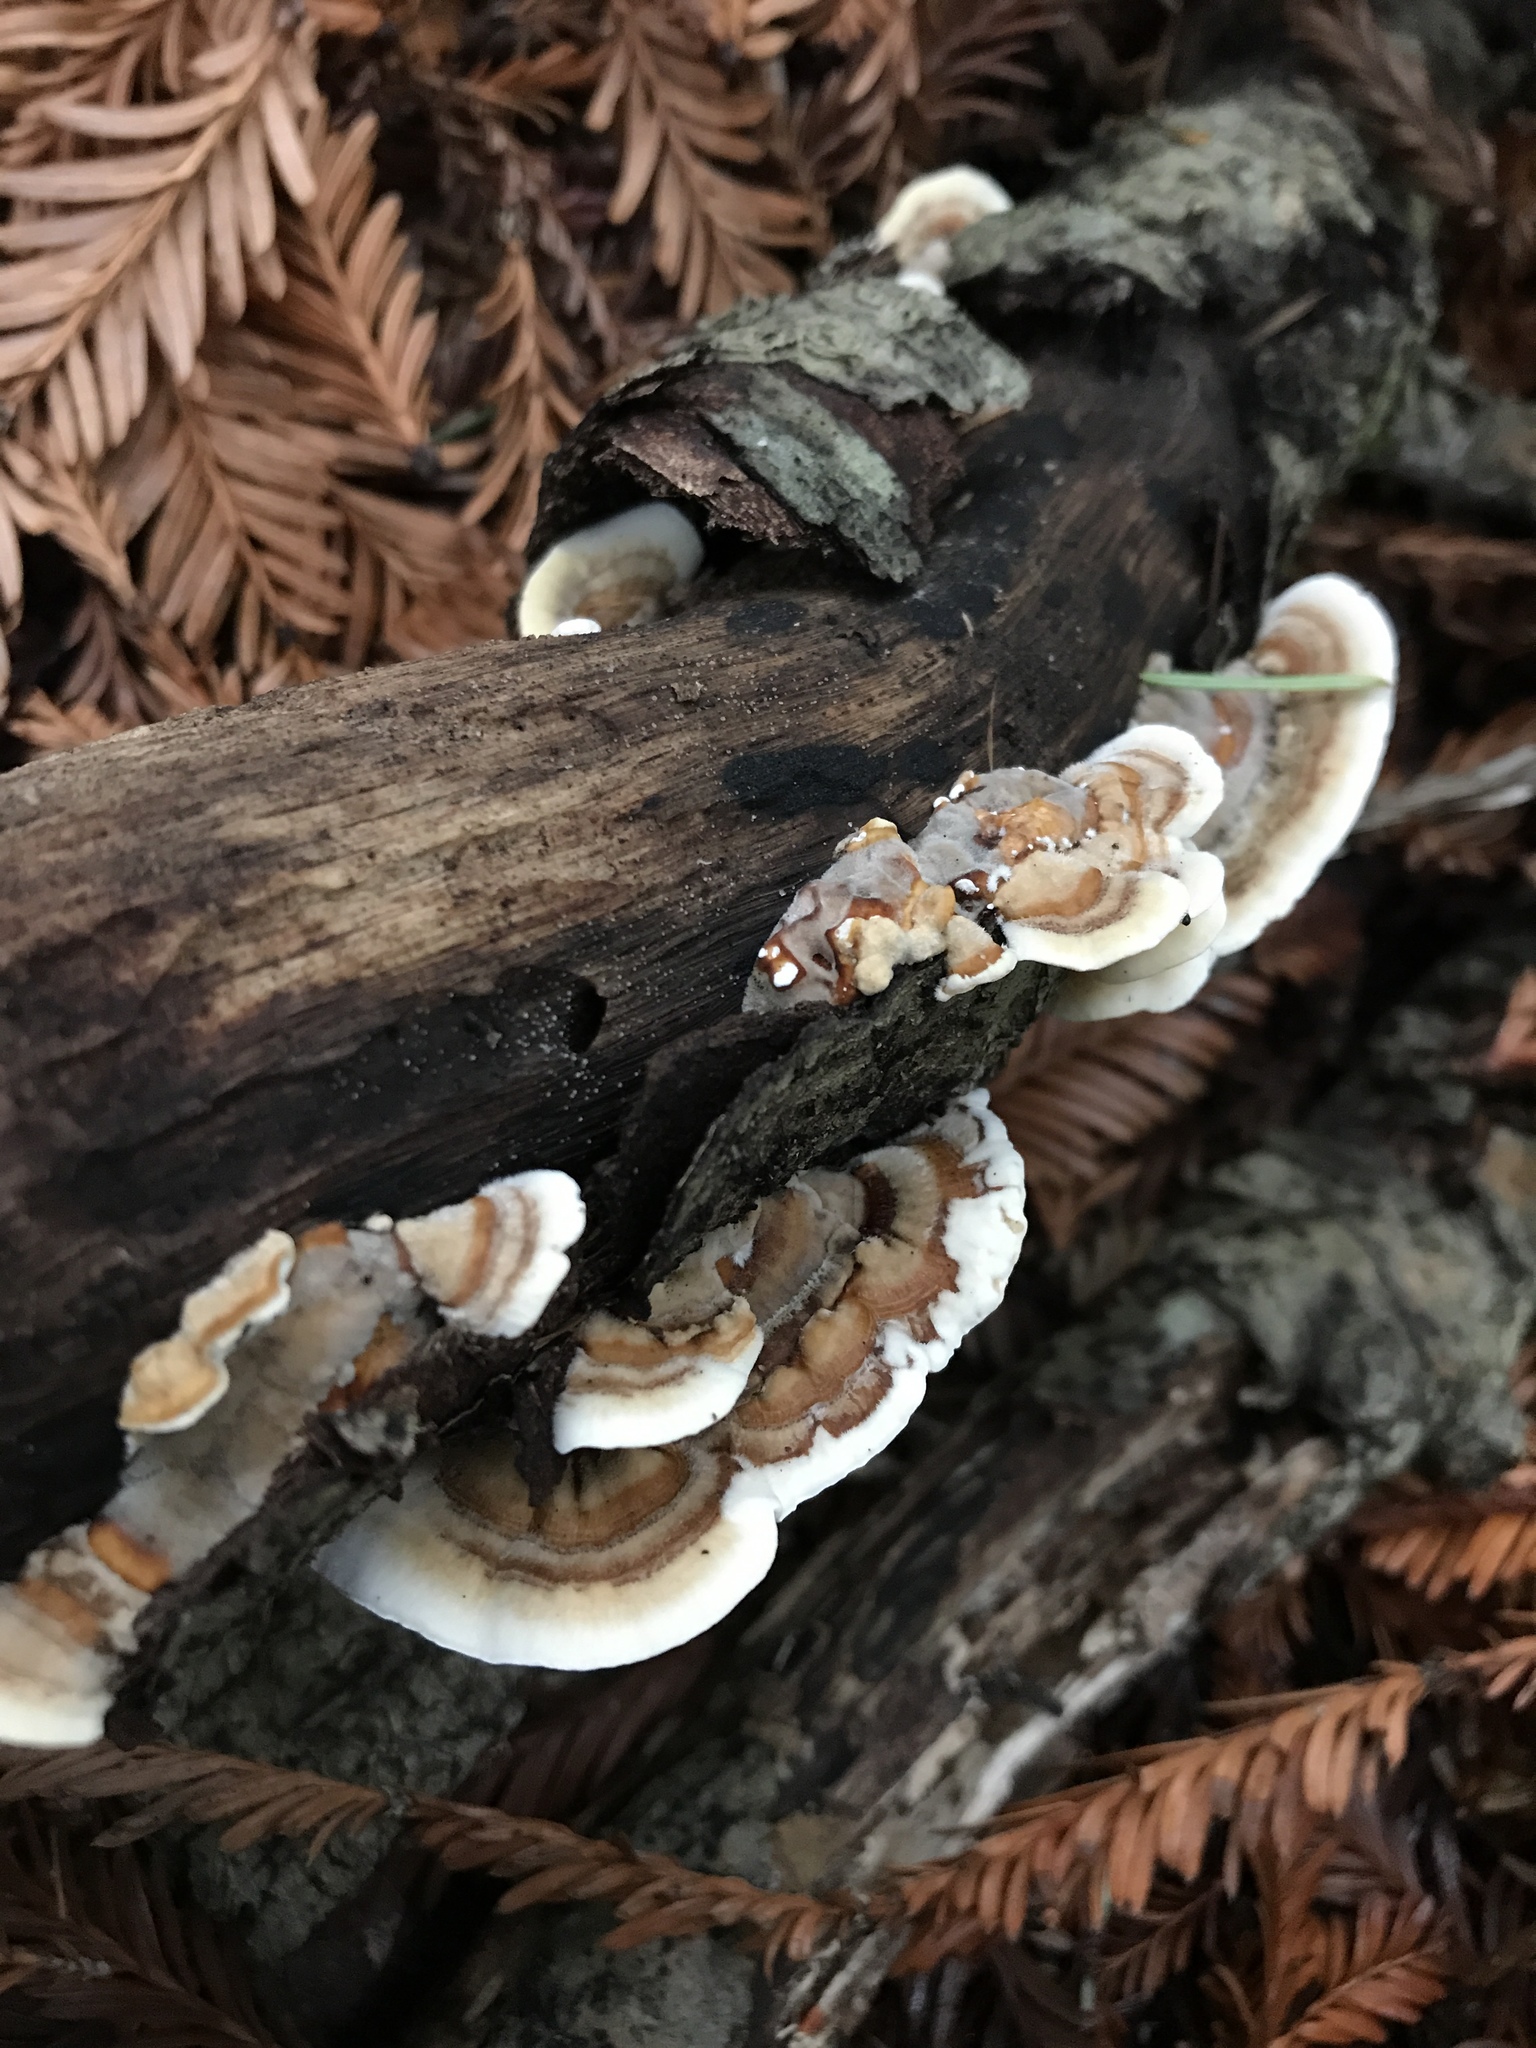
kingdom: Fungi
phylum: Basidiomycota
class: Agaricomycetes
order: Polyporales
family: Polyporaceae
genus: Trametes
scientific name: Trametes versicolor
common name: Turkeytail
